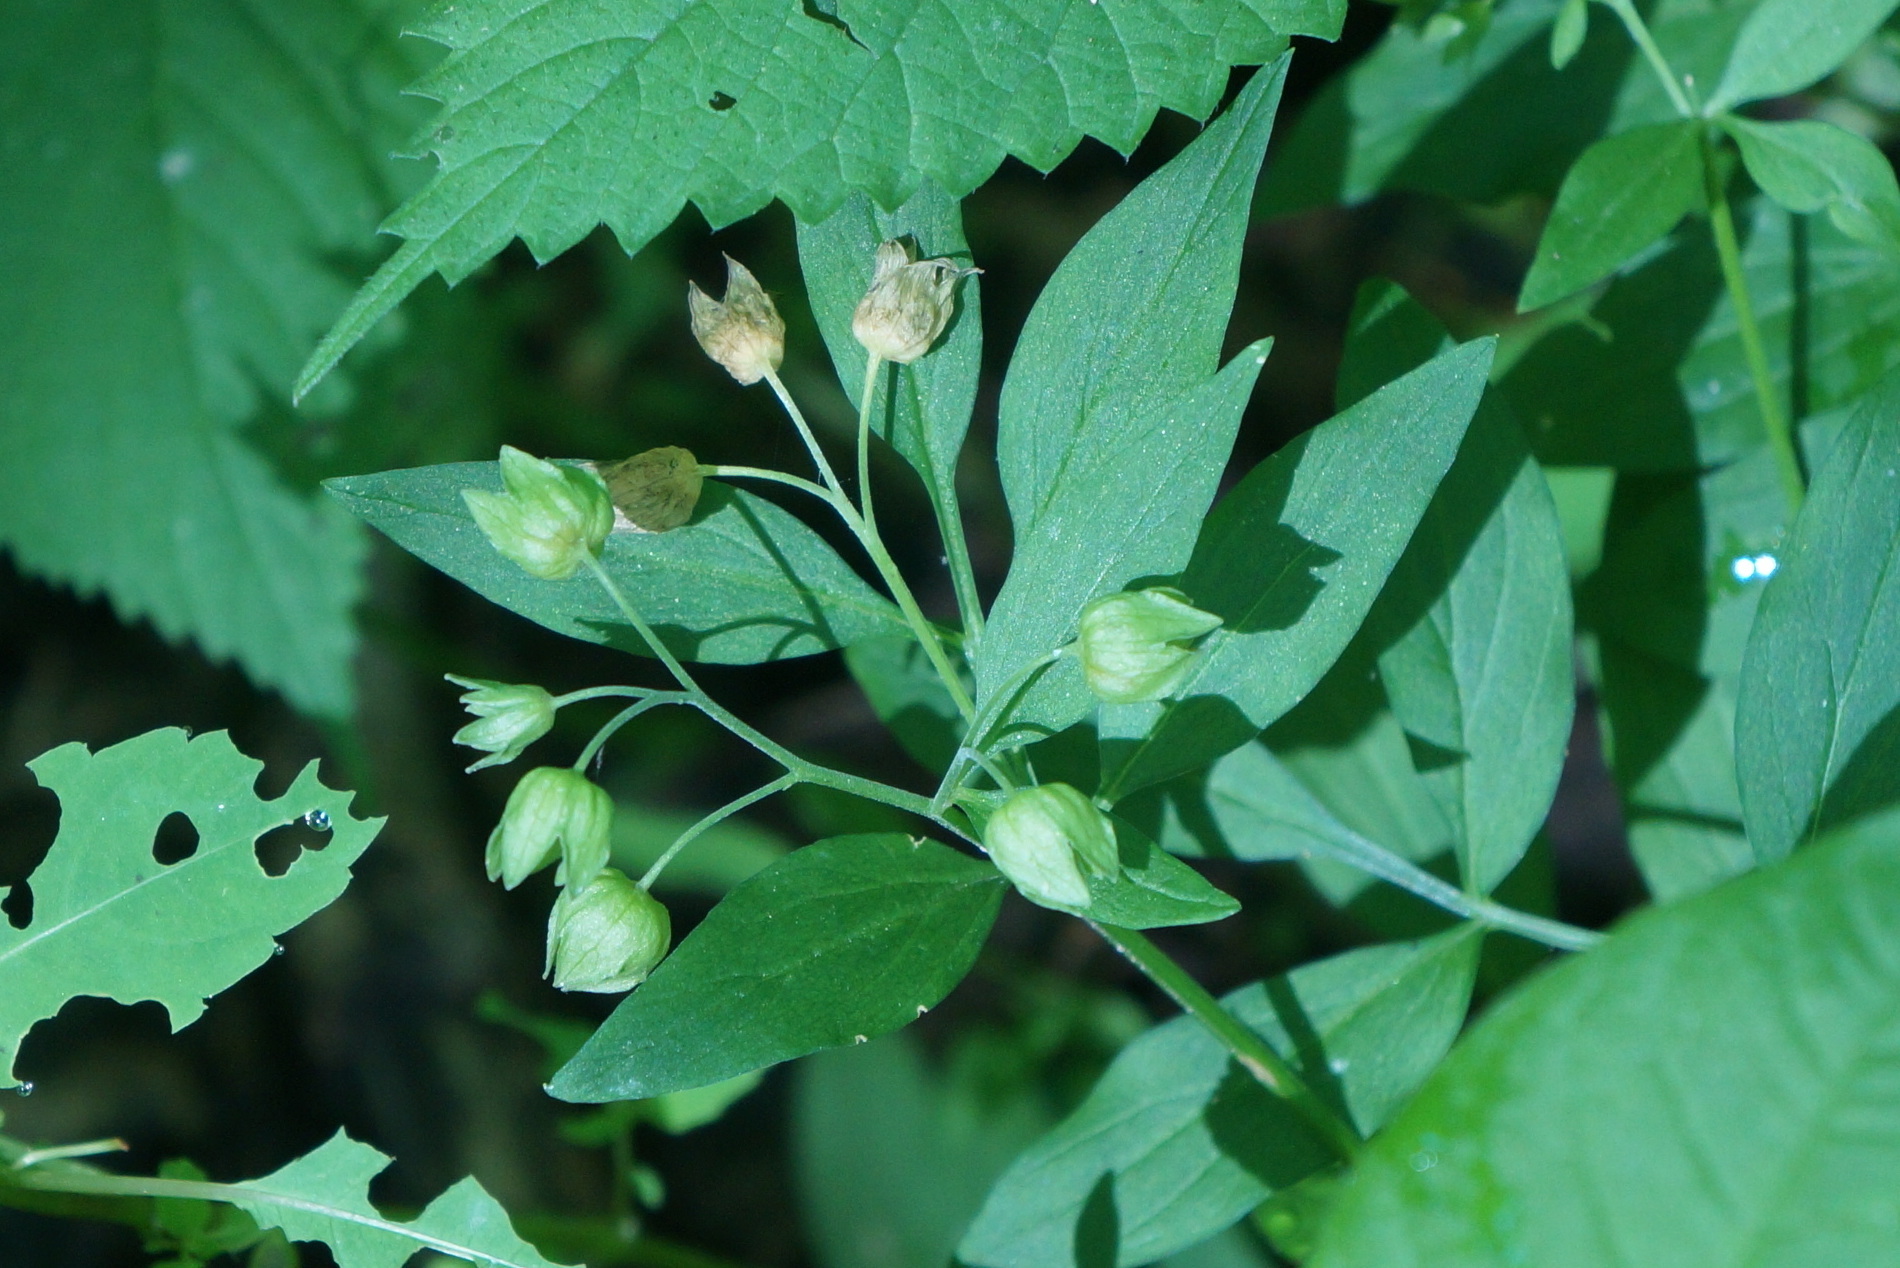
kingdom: Plantae
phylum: Tracheophyta
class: Magnoliopsida
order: Ericales
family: Polemoniaceae
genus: Polemonium
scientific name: Polemonium reptans
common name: Creeping jacob's-ladder
